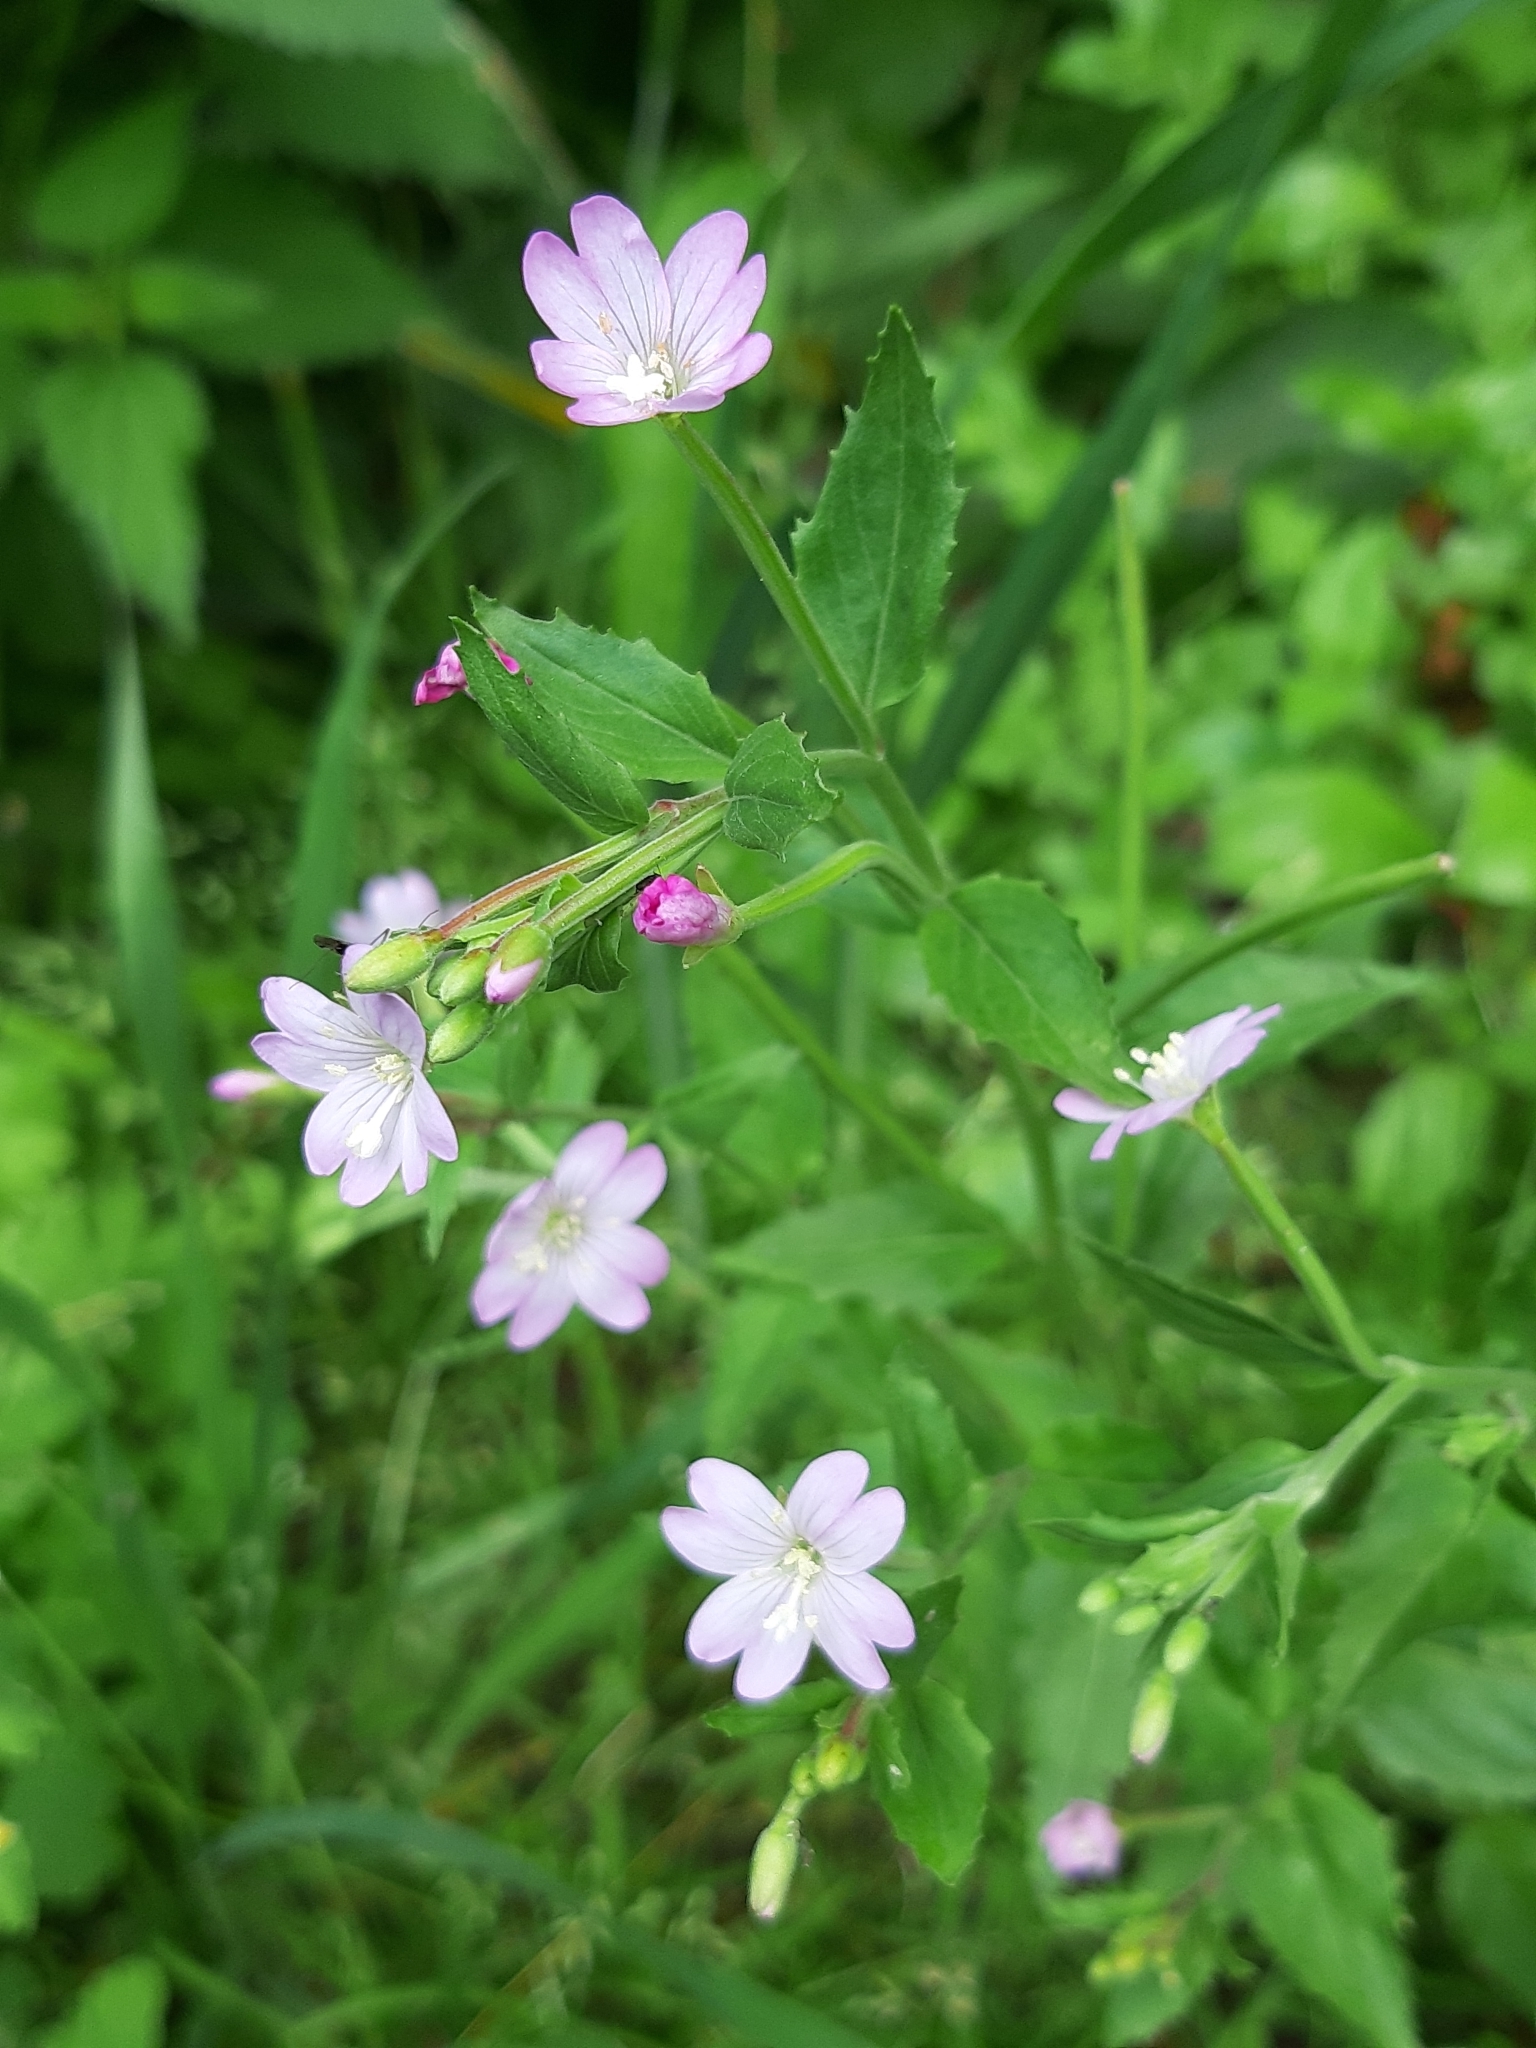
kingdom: Plantae
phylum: Tracheophyta
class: Magnoliopsida
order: Myrtales
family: Onagraceae
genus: Epilobium
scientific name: Epilobium ciliatum
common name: American willowherb
